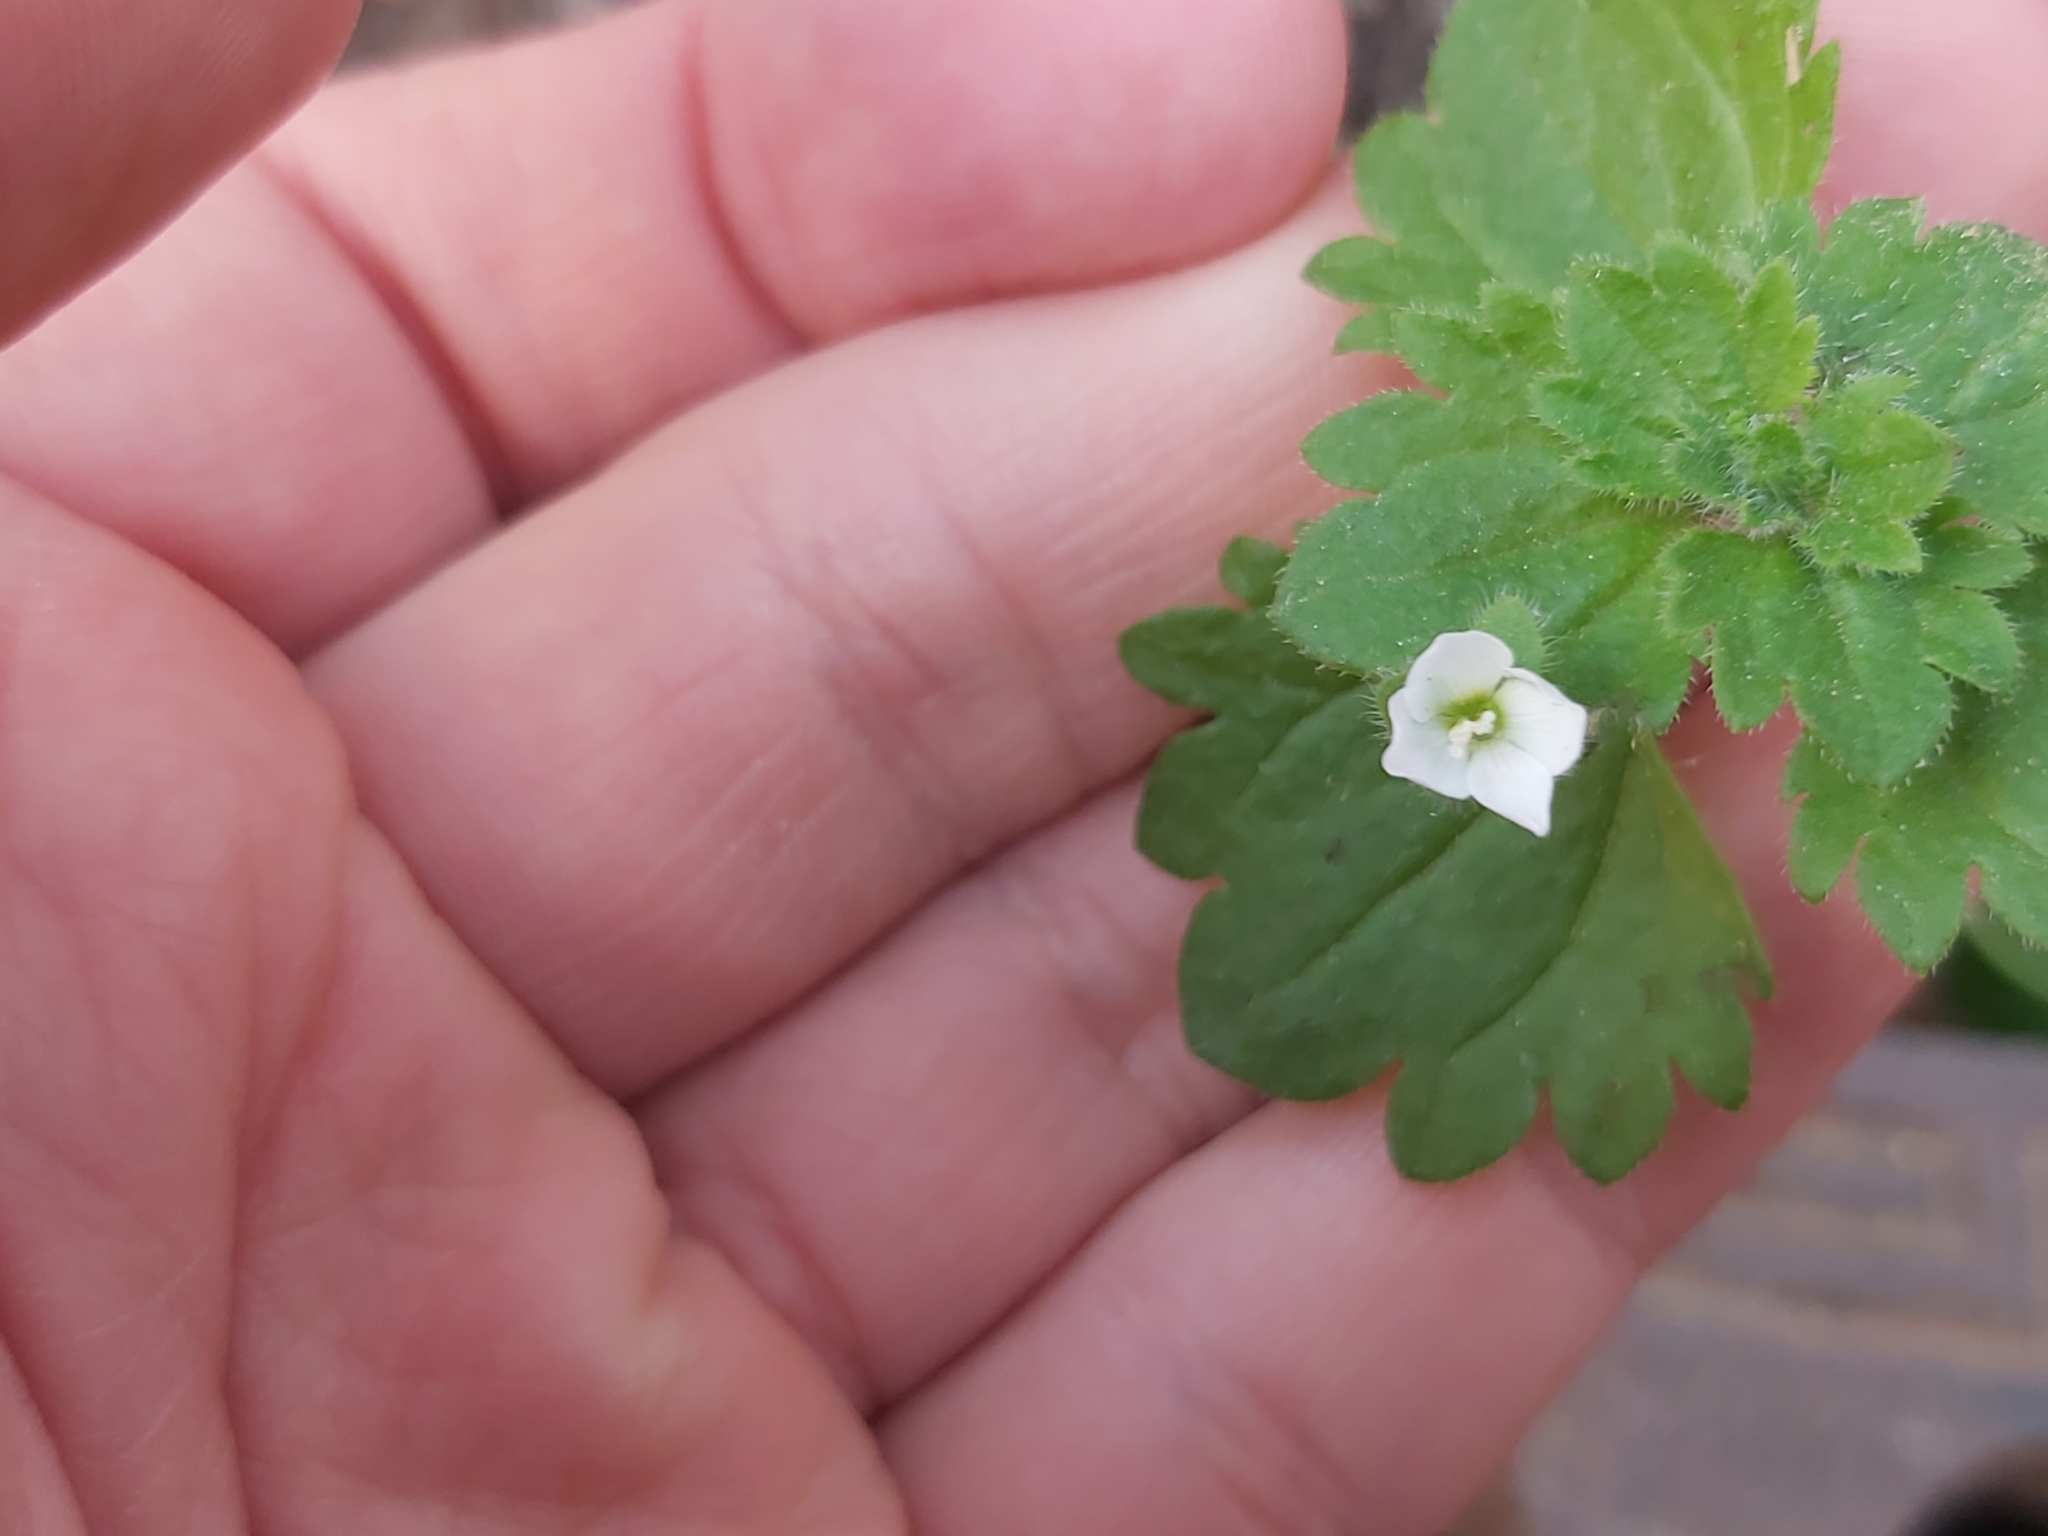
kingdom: Plantae
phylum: Tracheophyta
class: Magnoliopsida
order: Lamiales
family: Plantaginaceae
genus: Veronica
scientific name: Veronica cymbalaria
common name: Pale speedwell
